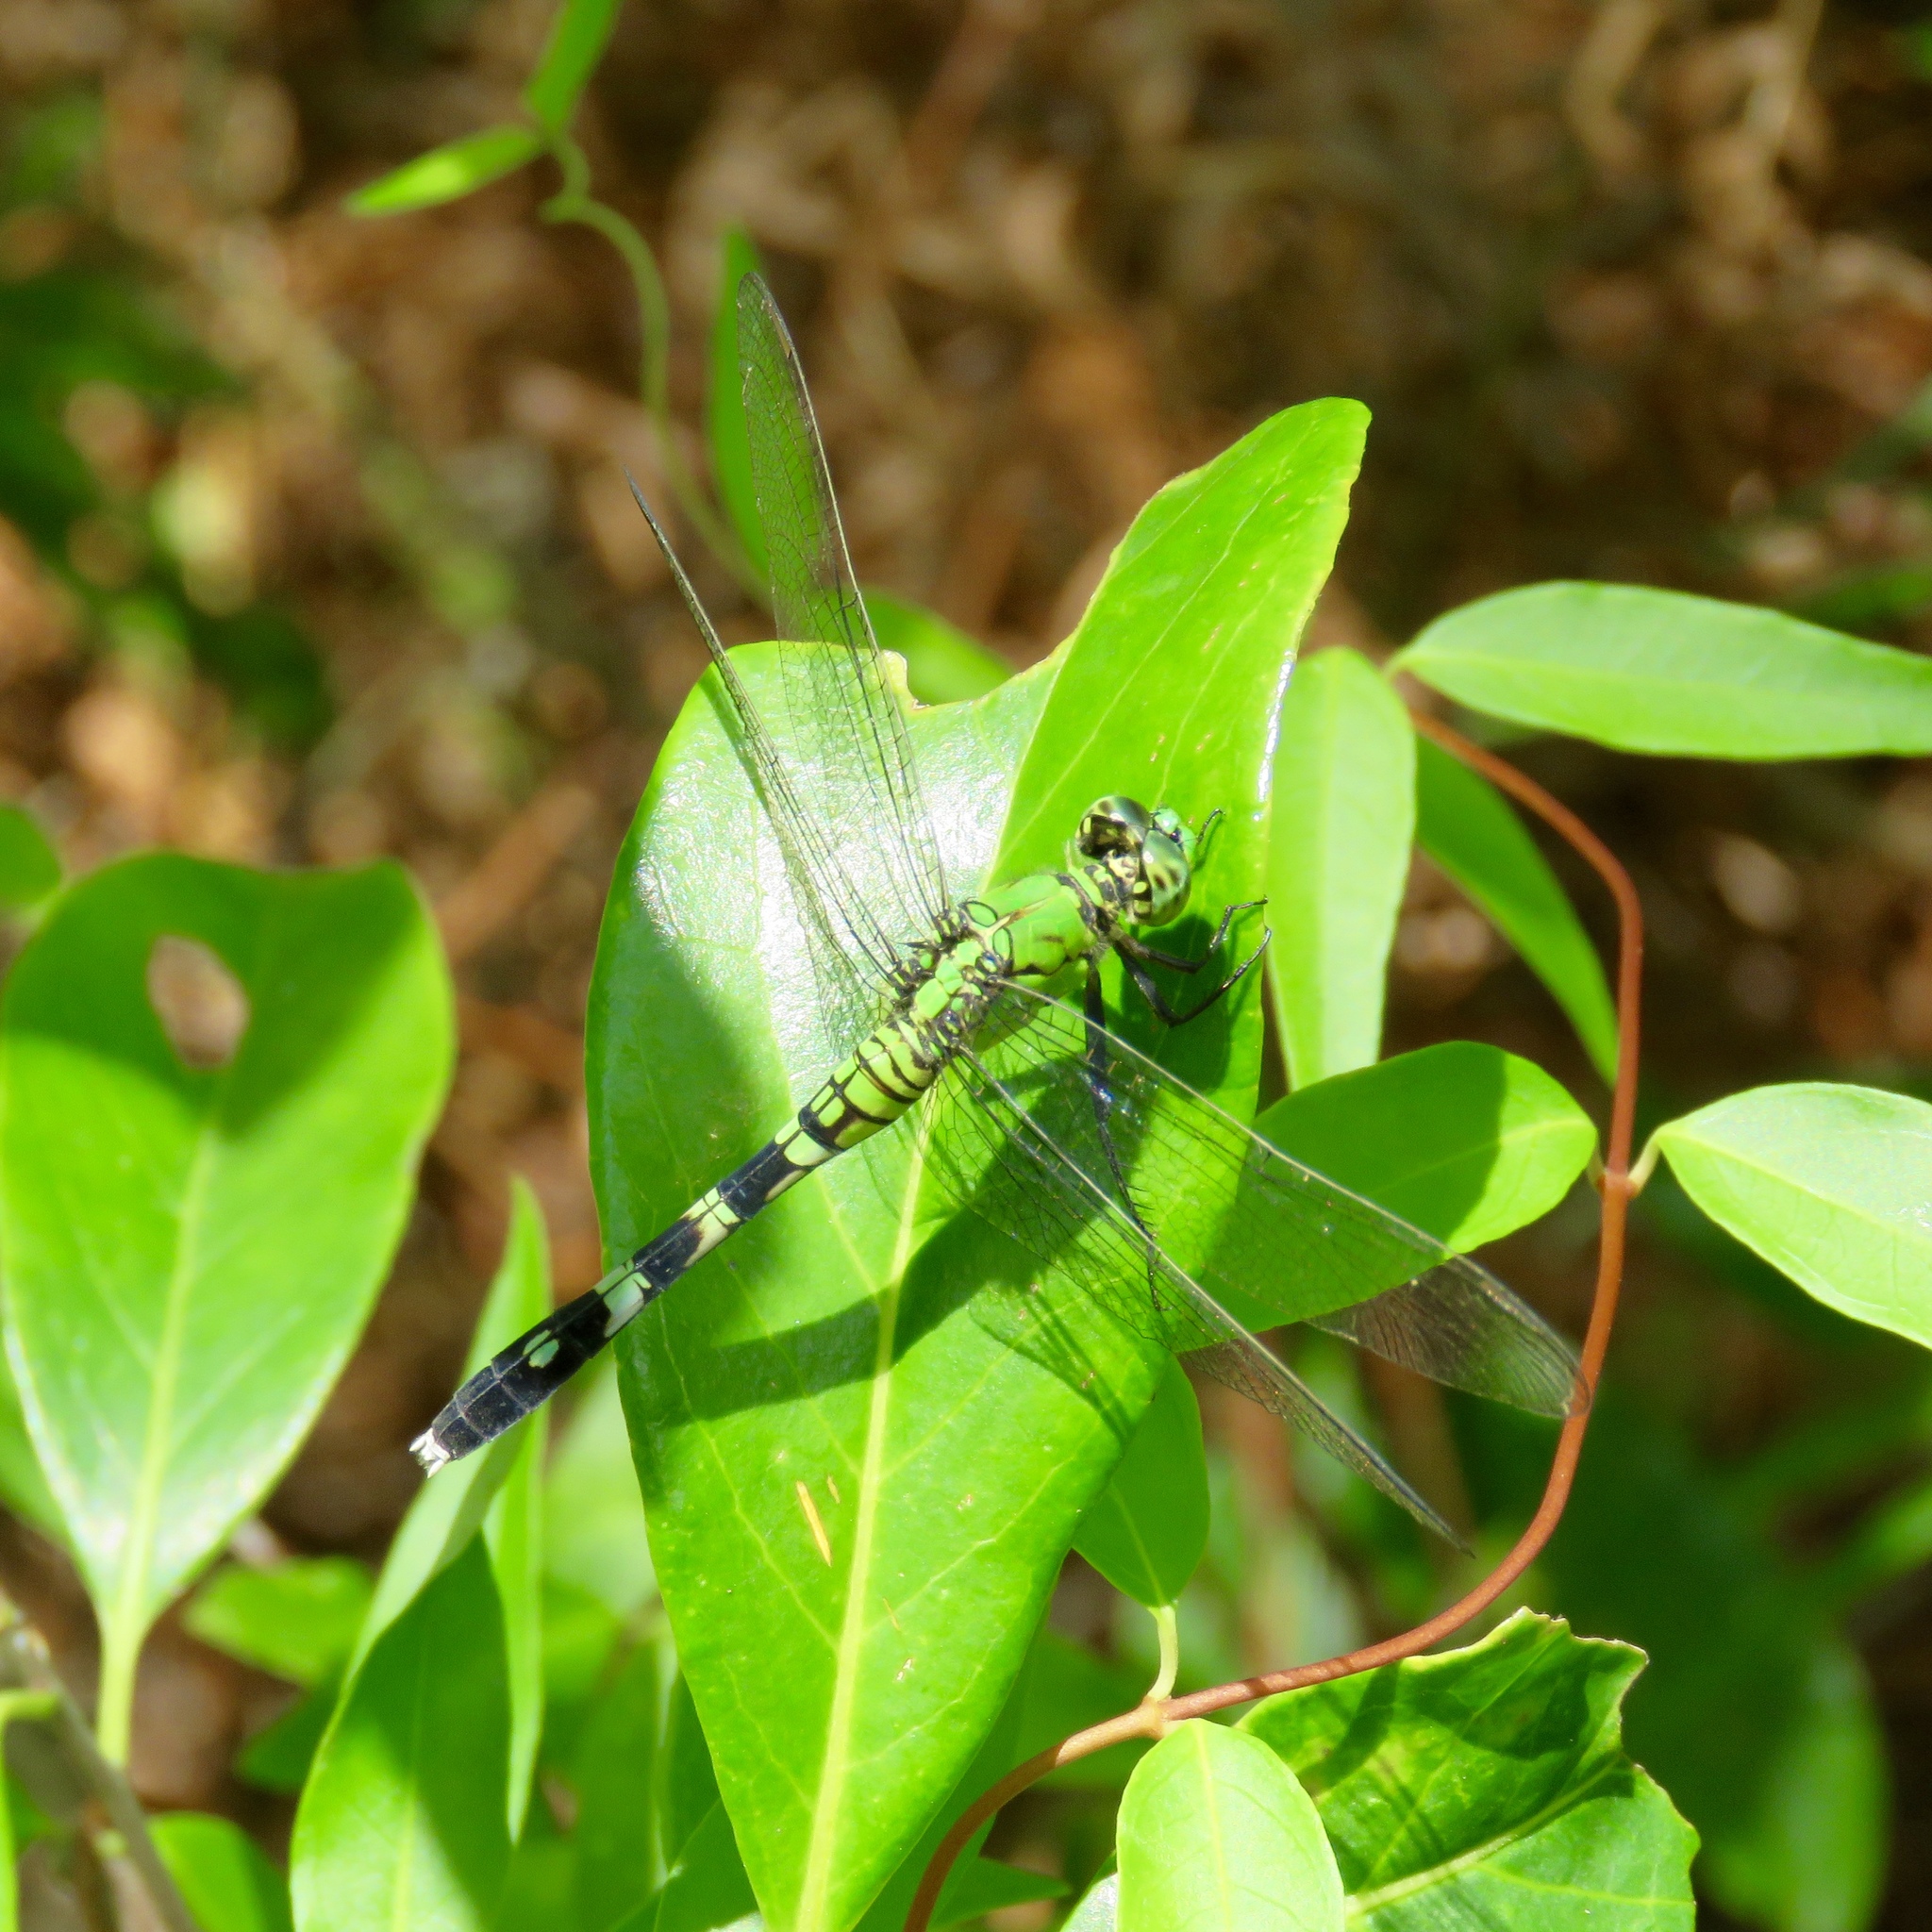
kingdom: Animalia
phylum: Arthropoda
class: Insecta
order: Odonata
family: Libellulidae
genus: Erythemis
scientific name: Erythemis simplicicollis
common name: Eastern pondhawk
